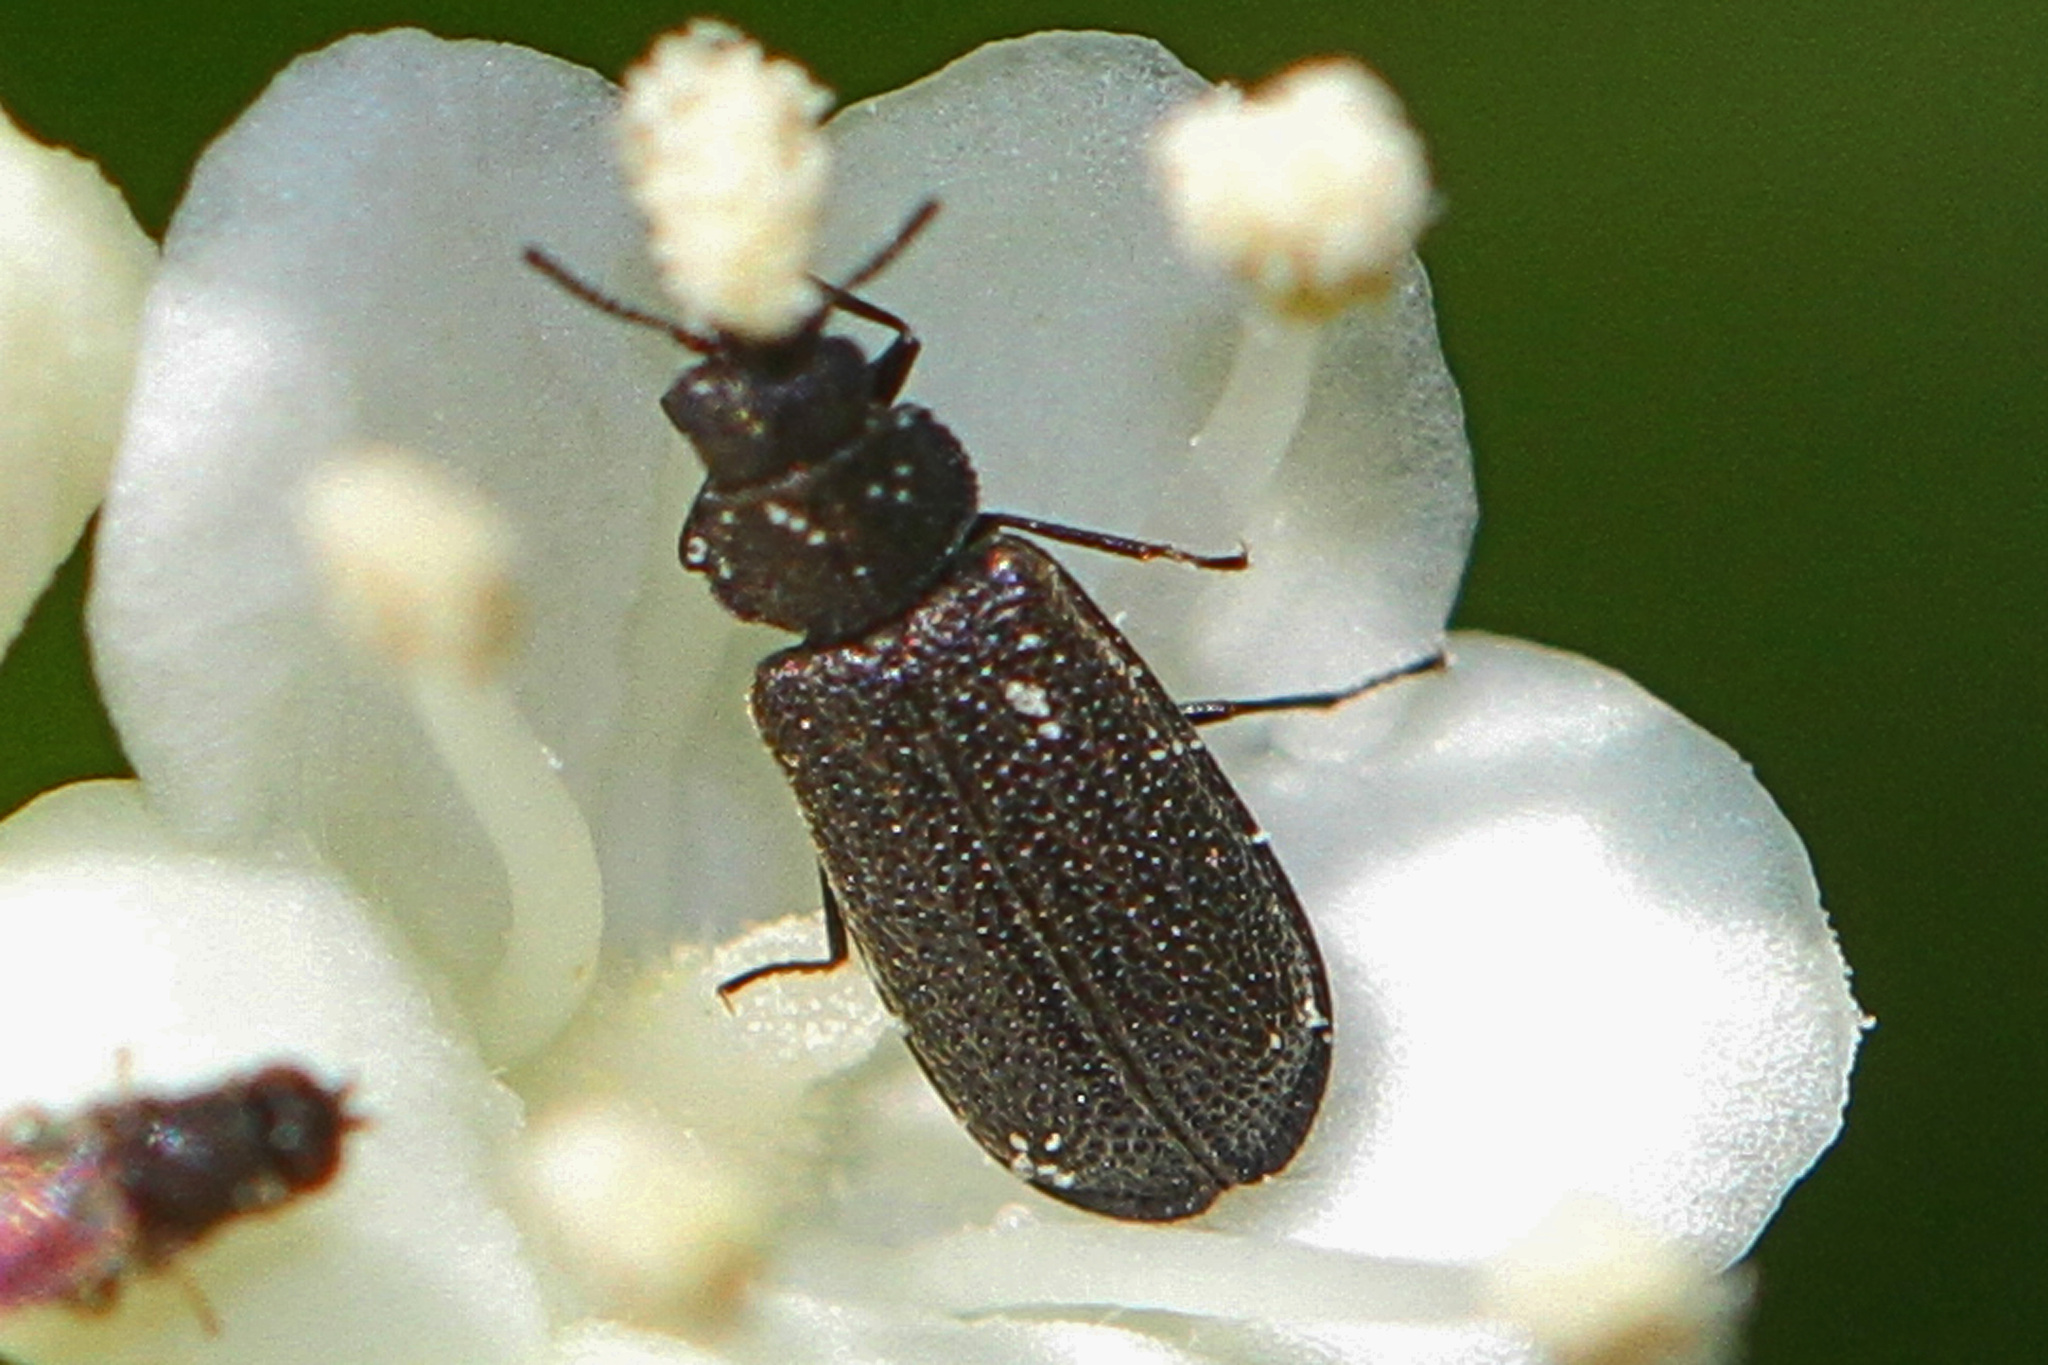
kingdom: Animalia
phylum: Arthropoda
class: Insecta
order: Coleoptera
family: Melyridae
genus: Melyrodes
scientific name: Melyrodes
